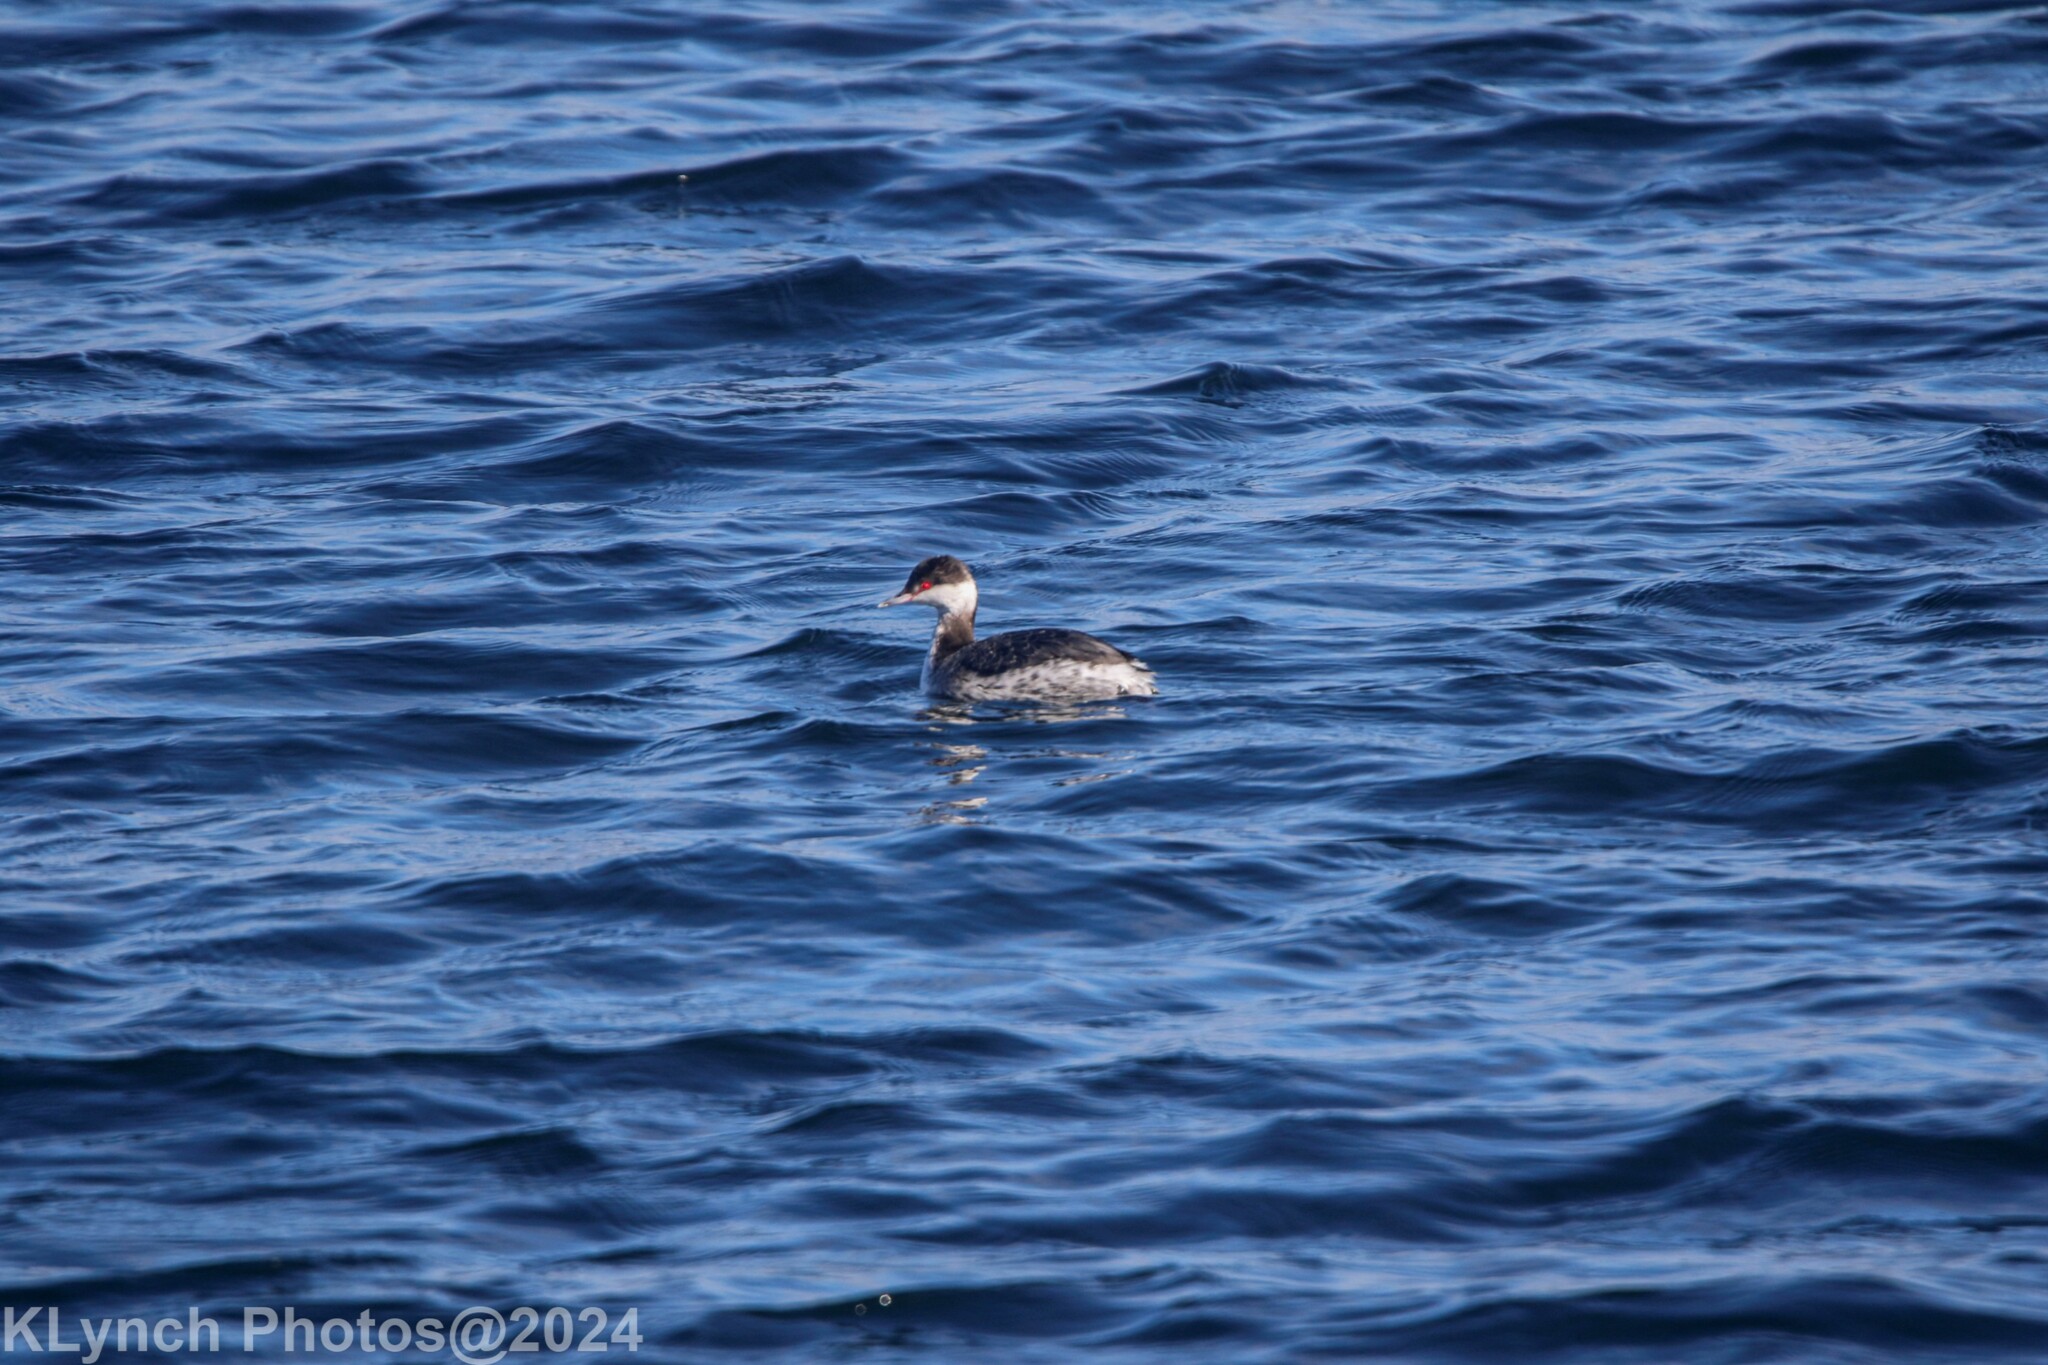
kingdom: Animalia
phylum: Chordata
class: Aves
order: Podicipediformes
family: Podicipedidae
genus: Podiceps
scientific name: Podiceps auritus
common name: Horned grebe
